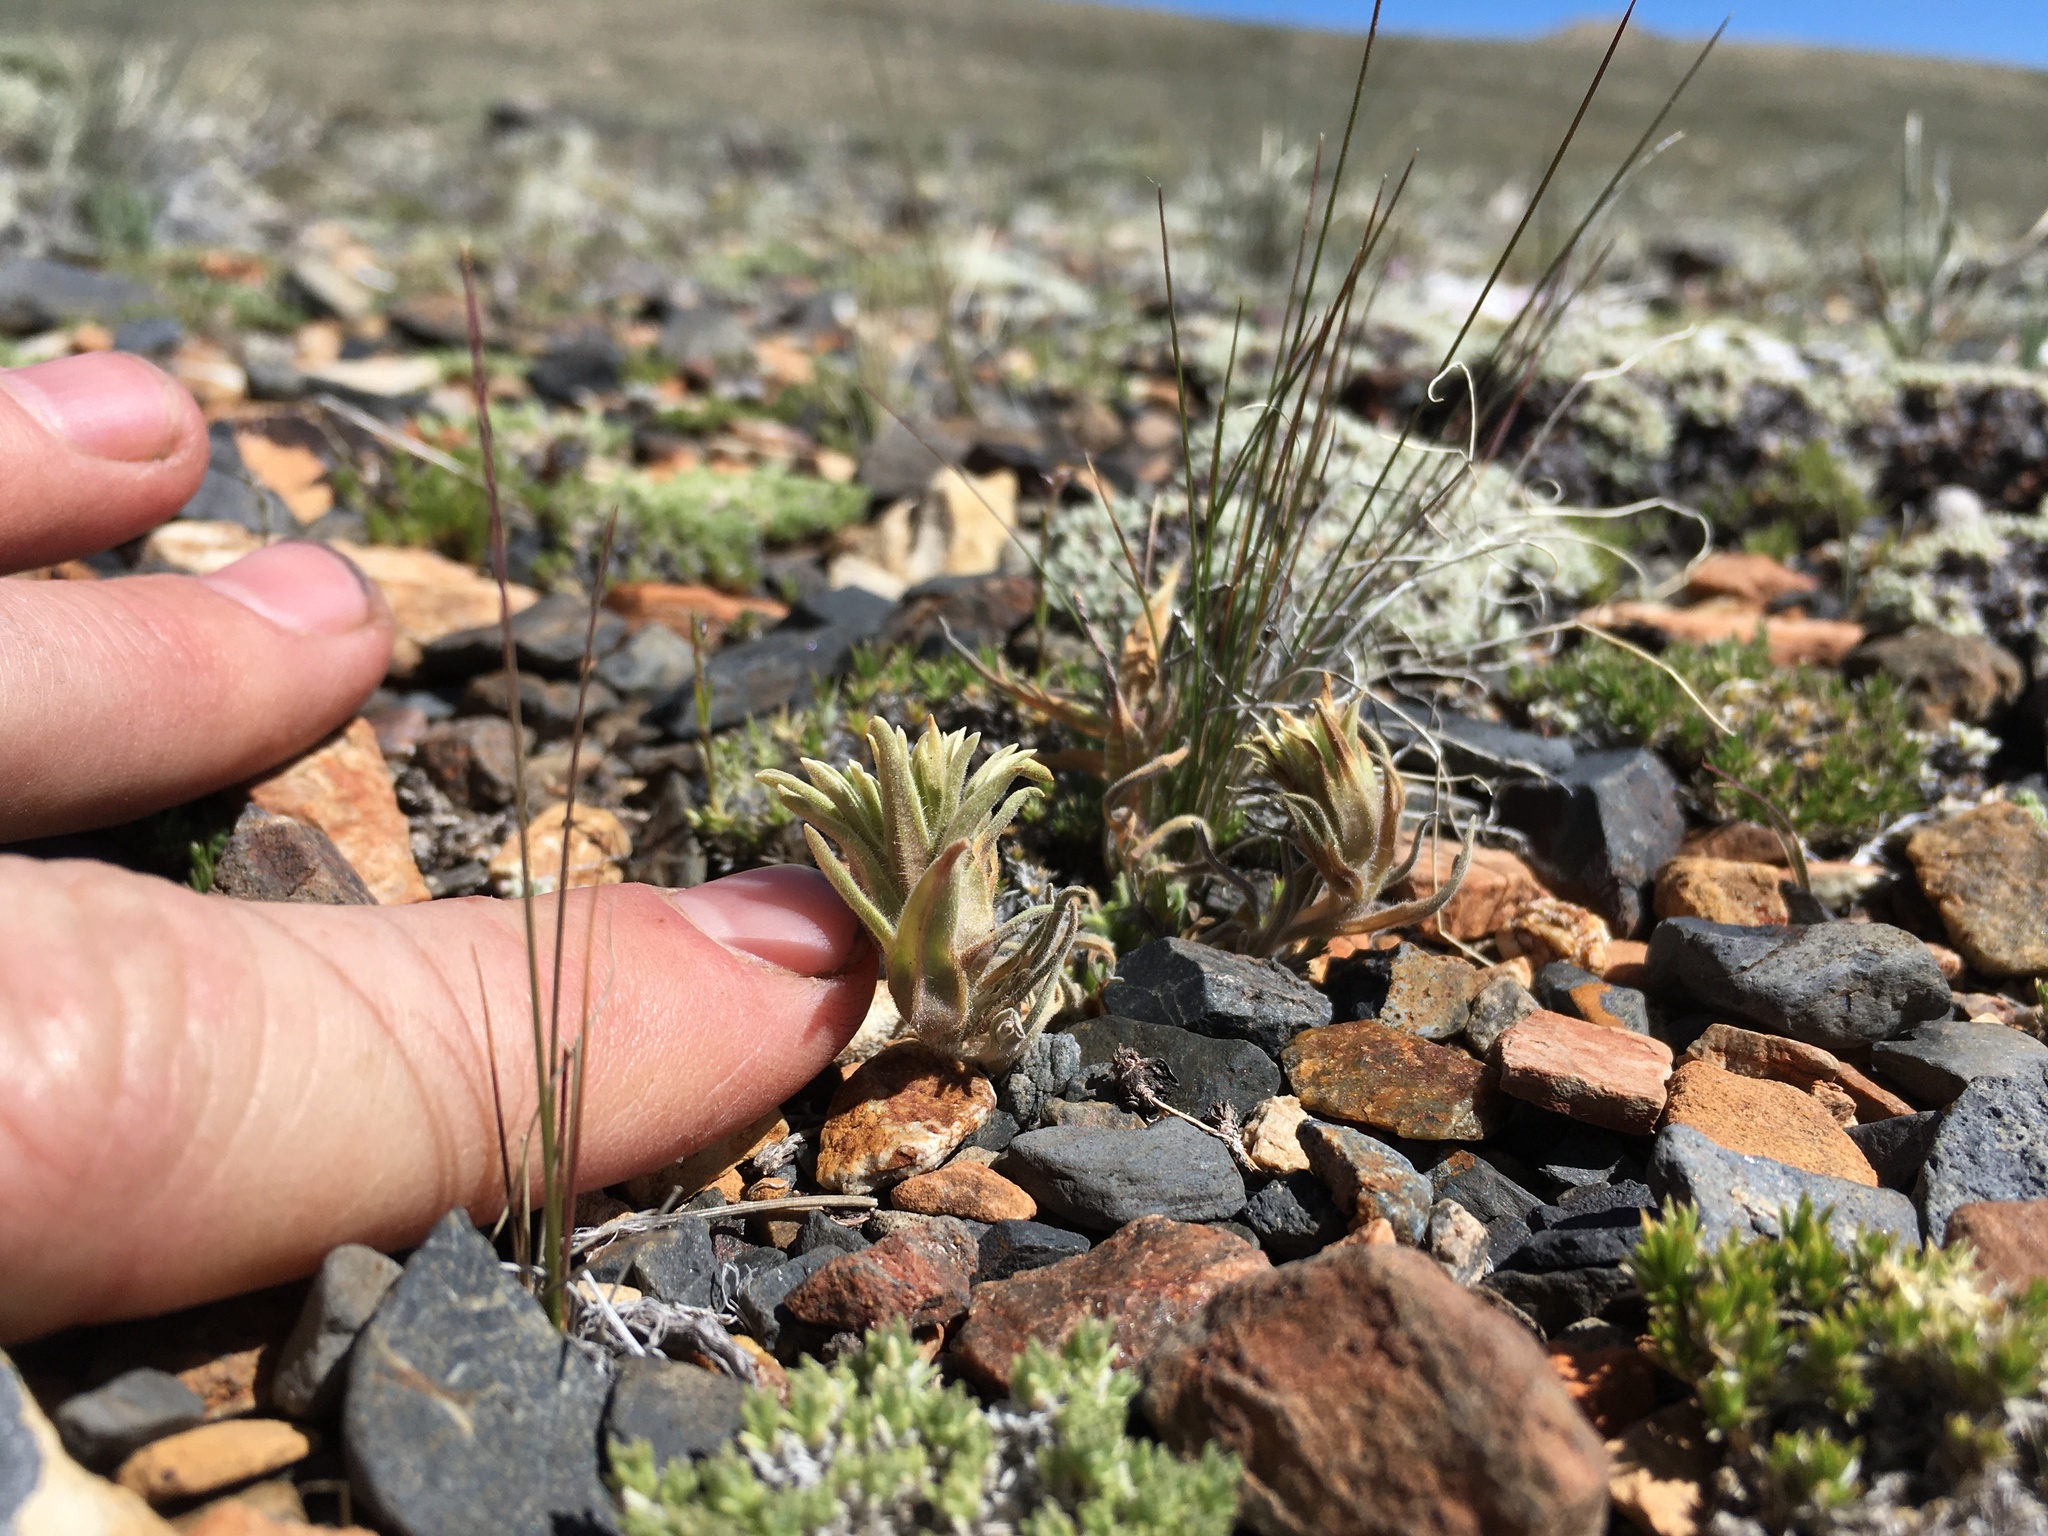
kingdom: Plantae
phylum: Tracheophyta
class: Magnoliopsida
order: Lamiales
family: Orobanchaceae
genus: Castilleja
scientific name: Castilleja nana
